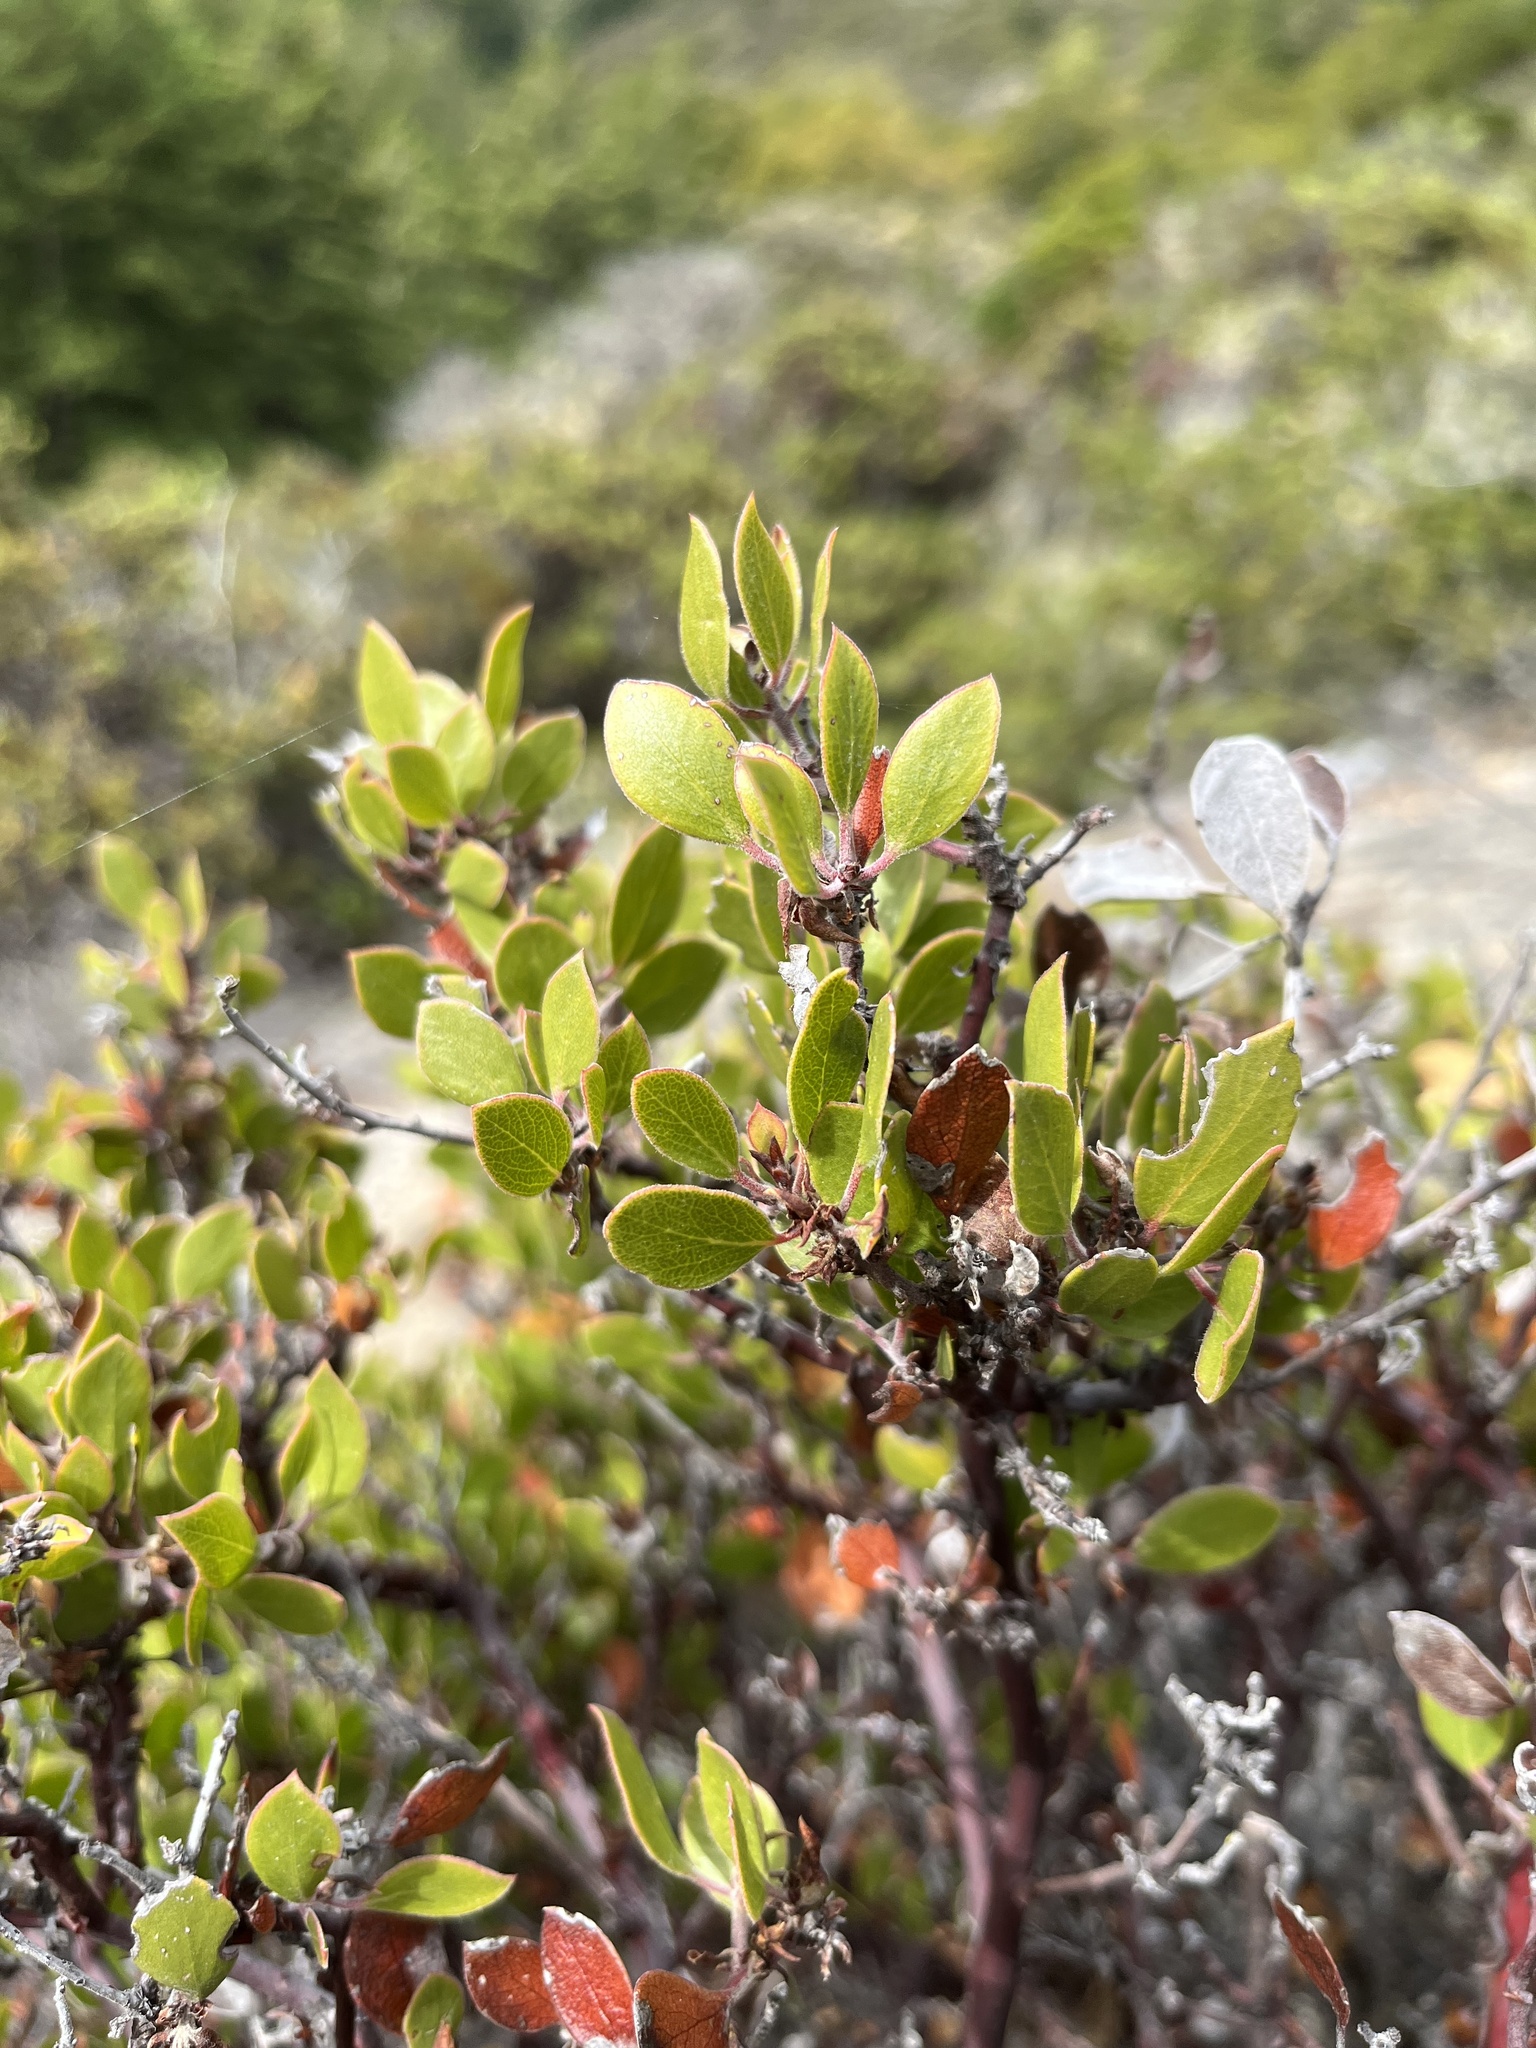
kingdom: Plantae
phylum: Tracheophyta
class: Magnoliopsida
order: Ericales
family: Ericaceae
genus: Arctostaphylos
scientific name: Arctostaphylos hookeri
